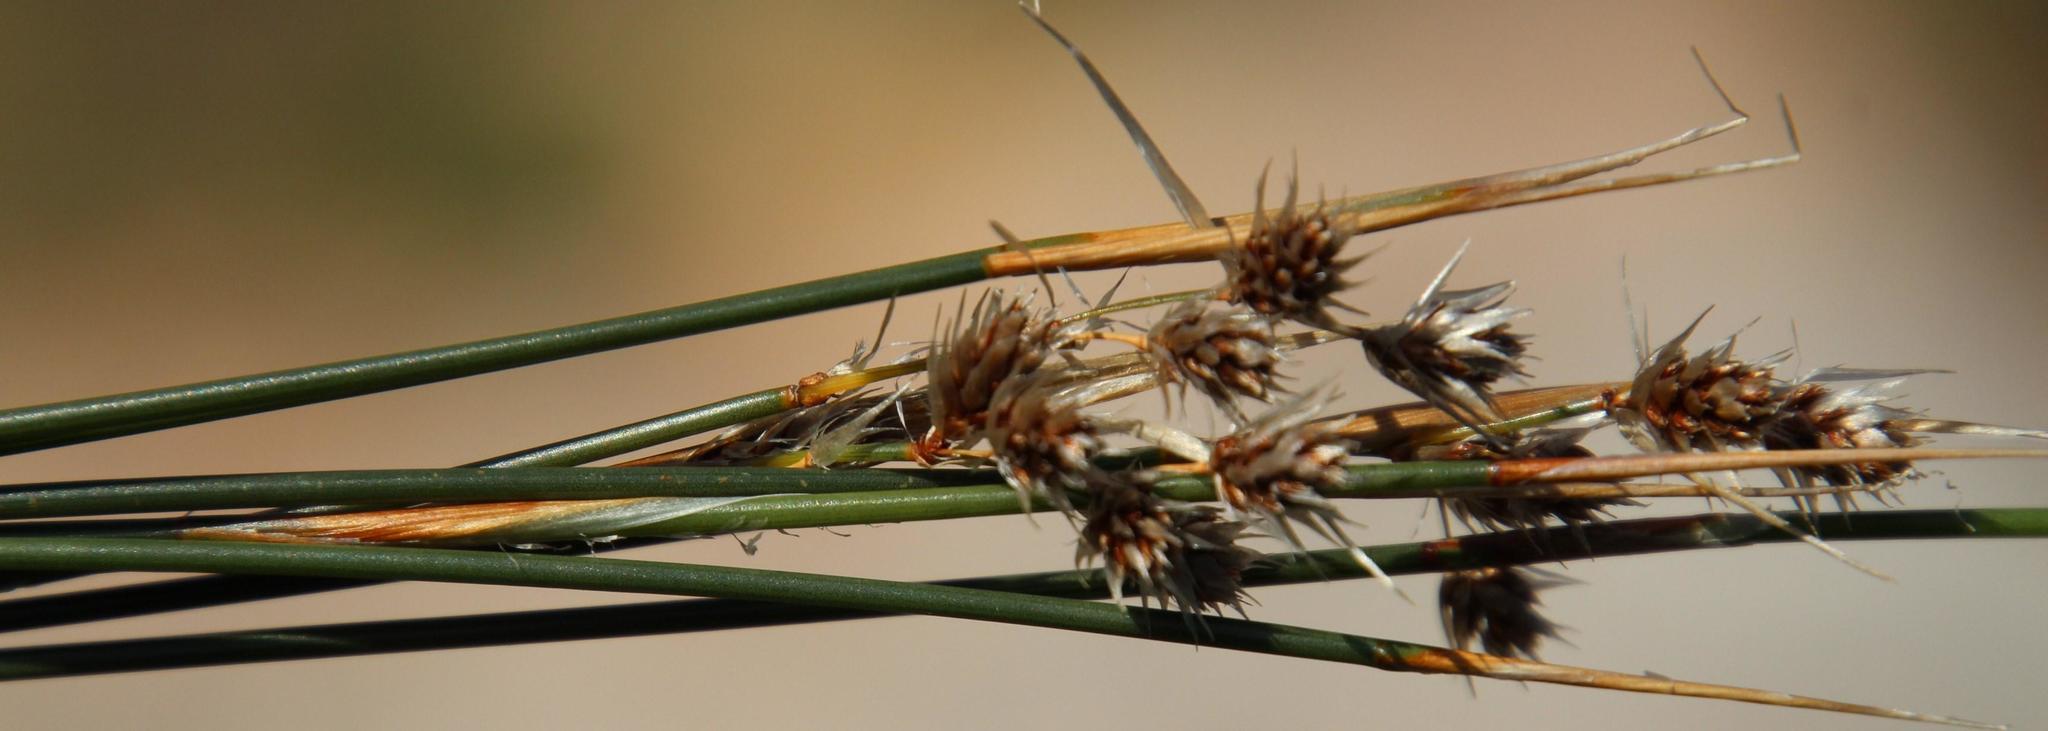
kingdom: Plantae
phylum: Tracheophyta
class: Liliopsida
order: Poales
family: Restionaceae
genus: Hypodiscus
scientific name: Hypodiscus argenteus
